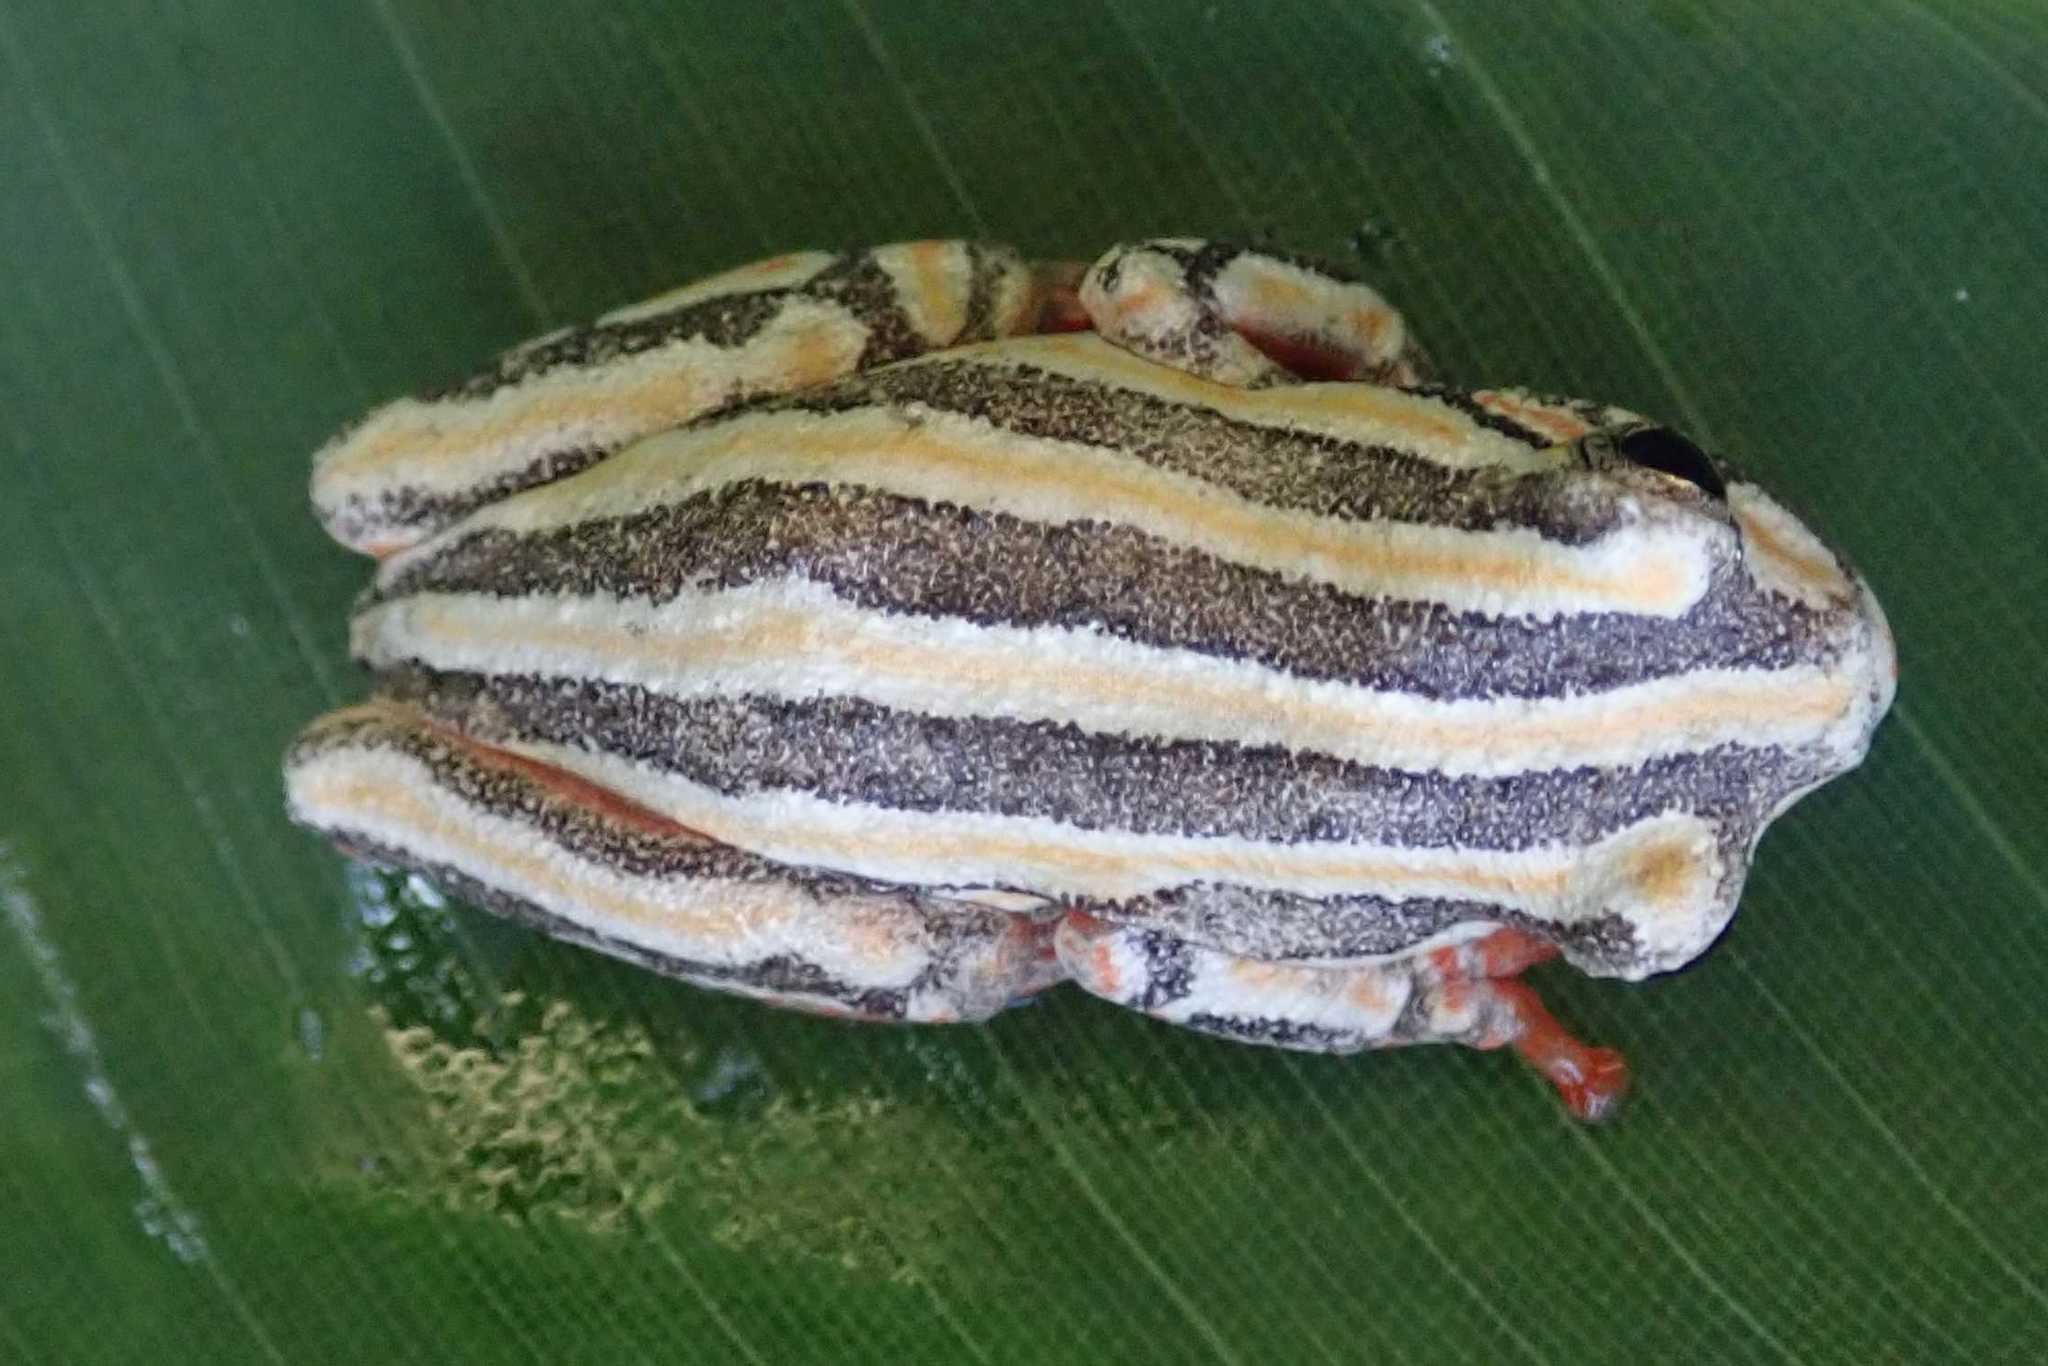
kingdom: Animalia
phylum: Chordata
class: Amphibia
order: Anura
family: Hyperoliidae
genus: Hyperolius
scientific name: Hyperolius marmoratus
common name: Painted reed frog
